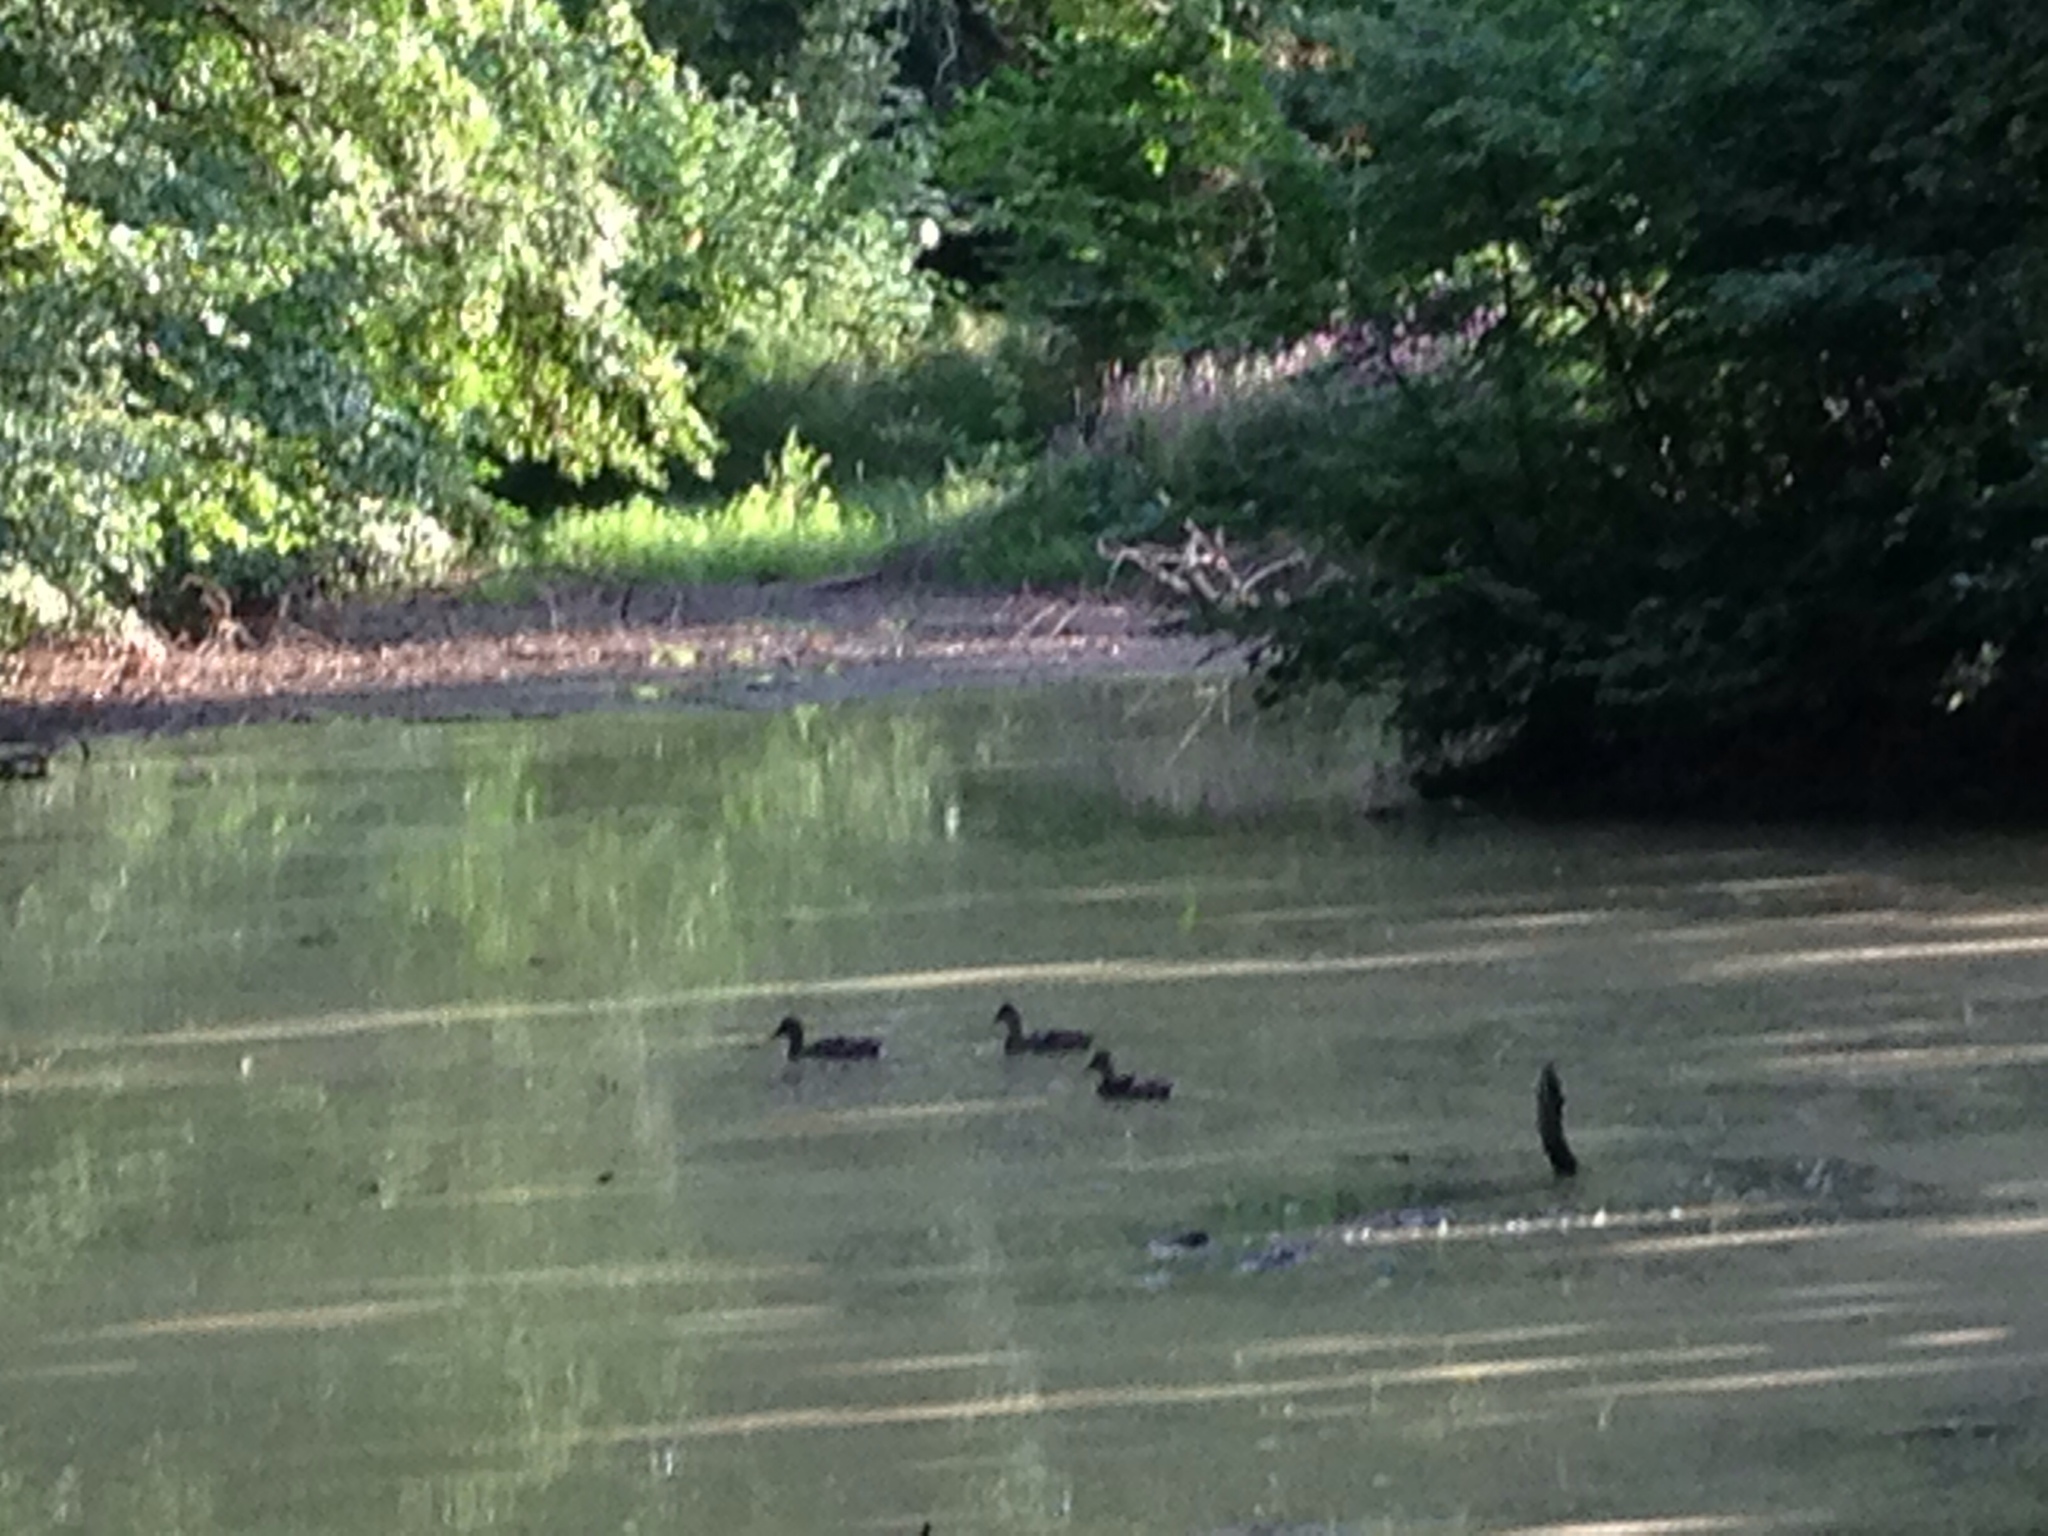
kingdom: Animalia
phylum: Chordata
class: Aves
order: Anseriformes
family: Anatidae
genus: Anas
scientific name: Anas platyrhynchos
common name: Mallard
